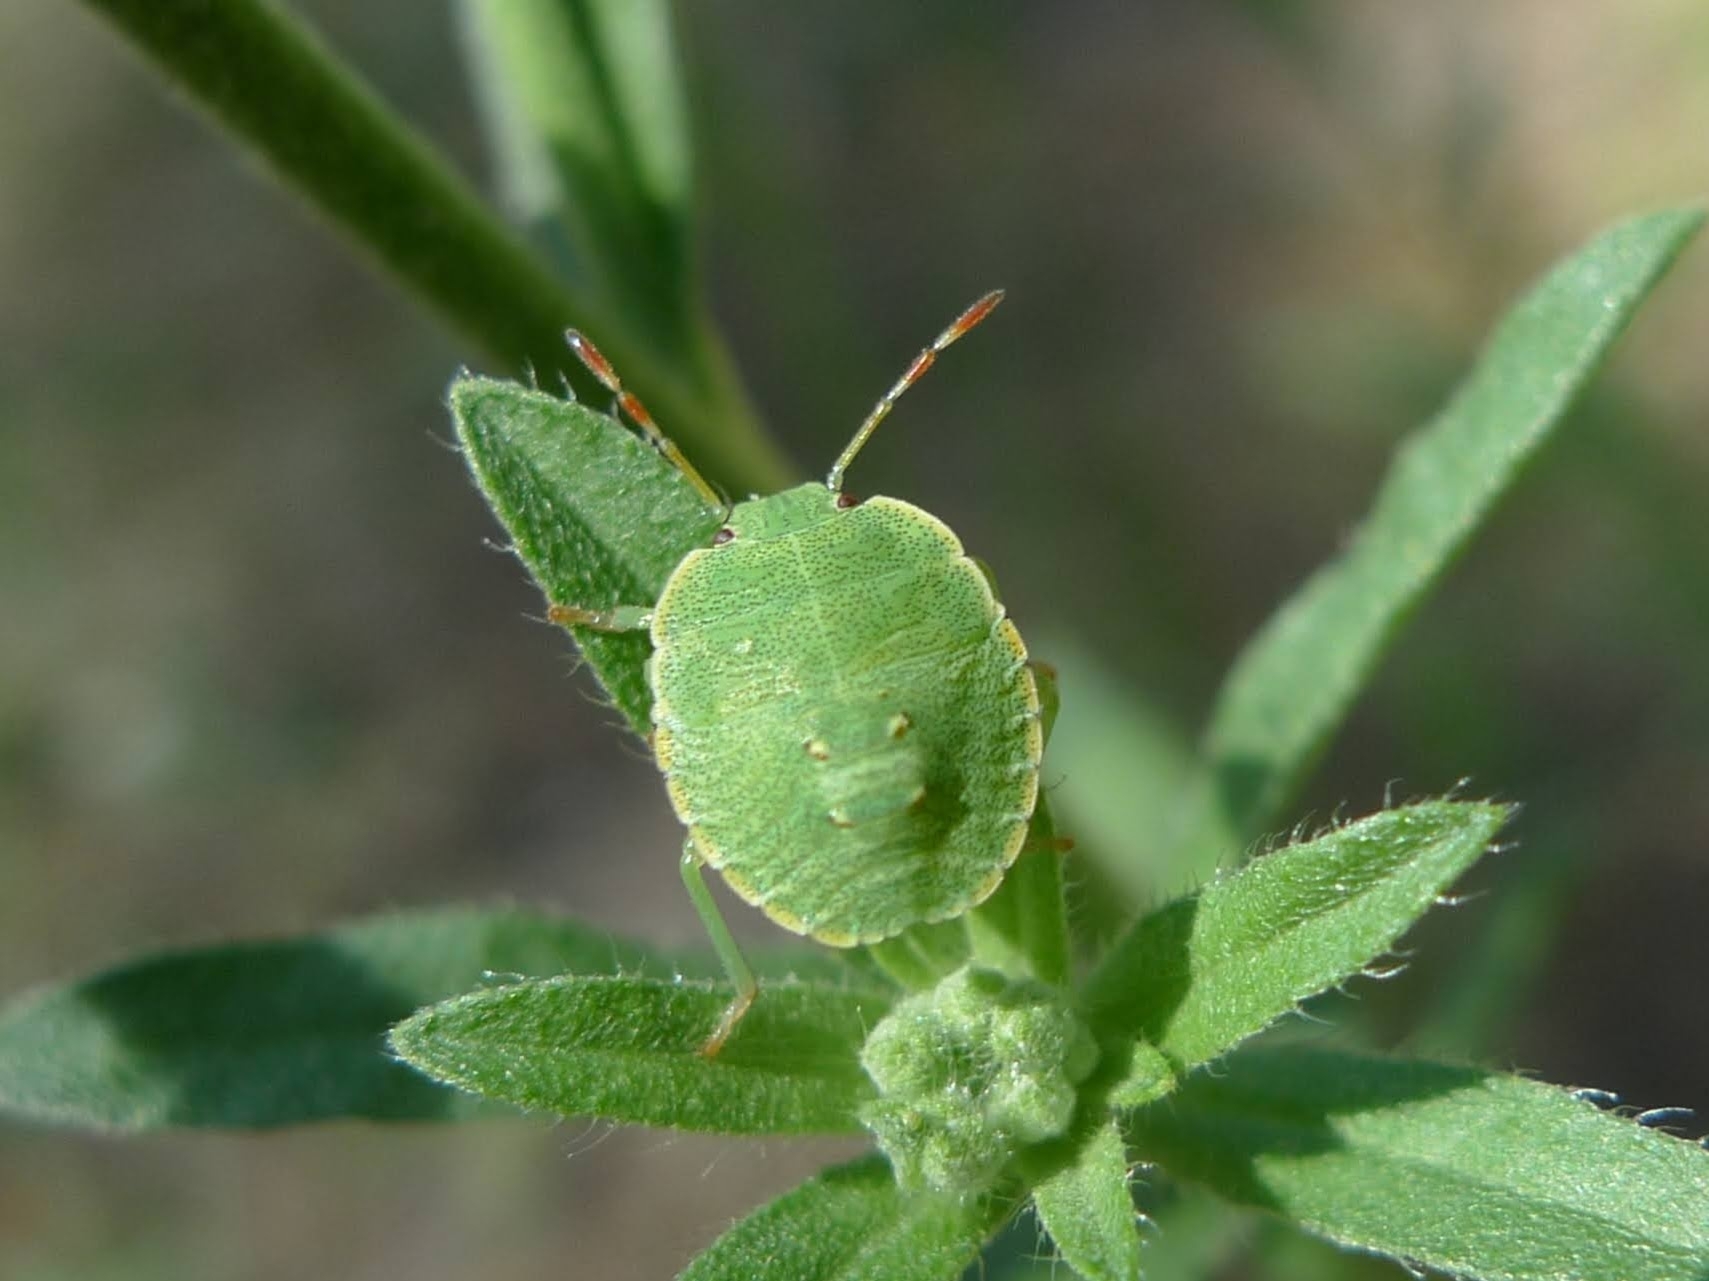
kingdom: Animalia
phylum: Arthropoda
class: Insecta
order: Hemiptera
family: Pentatomidae
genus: Palomena
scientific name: Palomena prasina
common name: Green shieldbug
